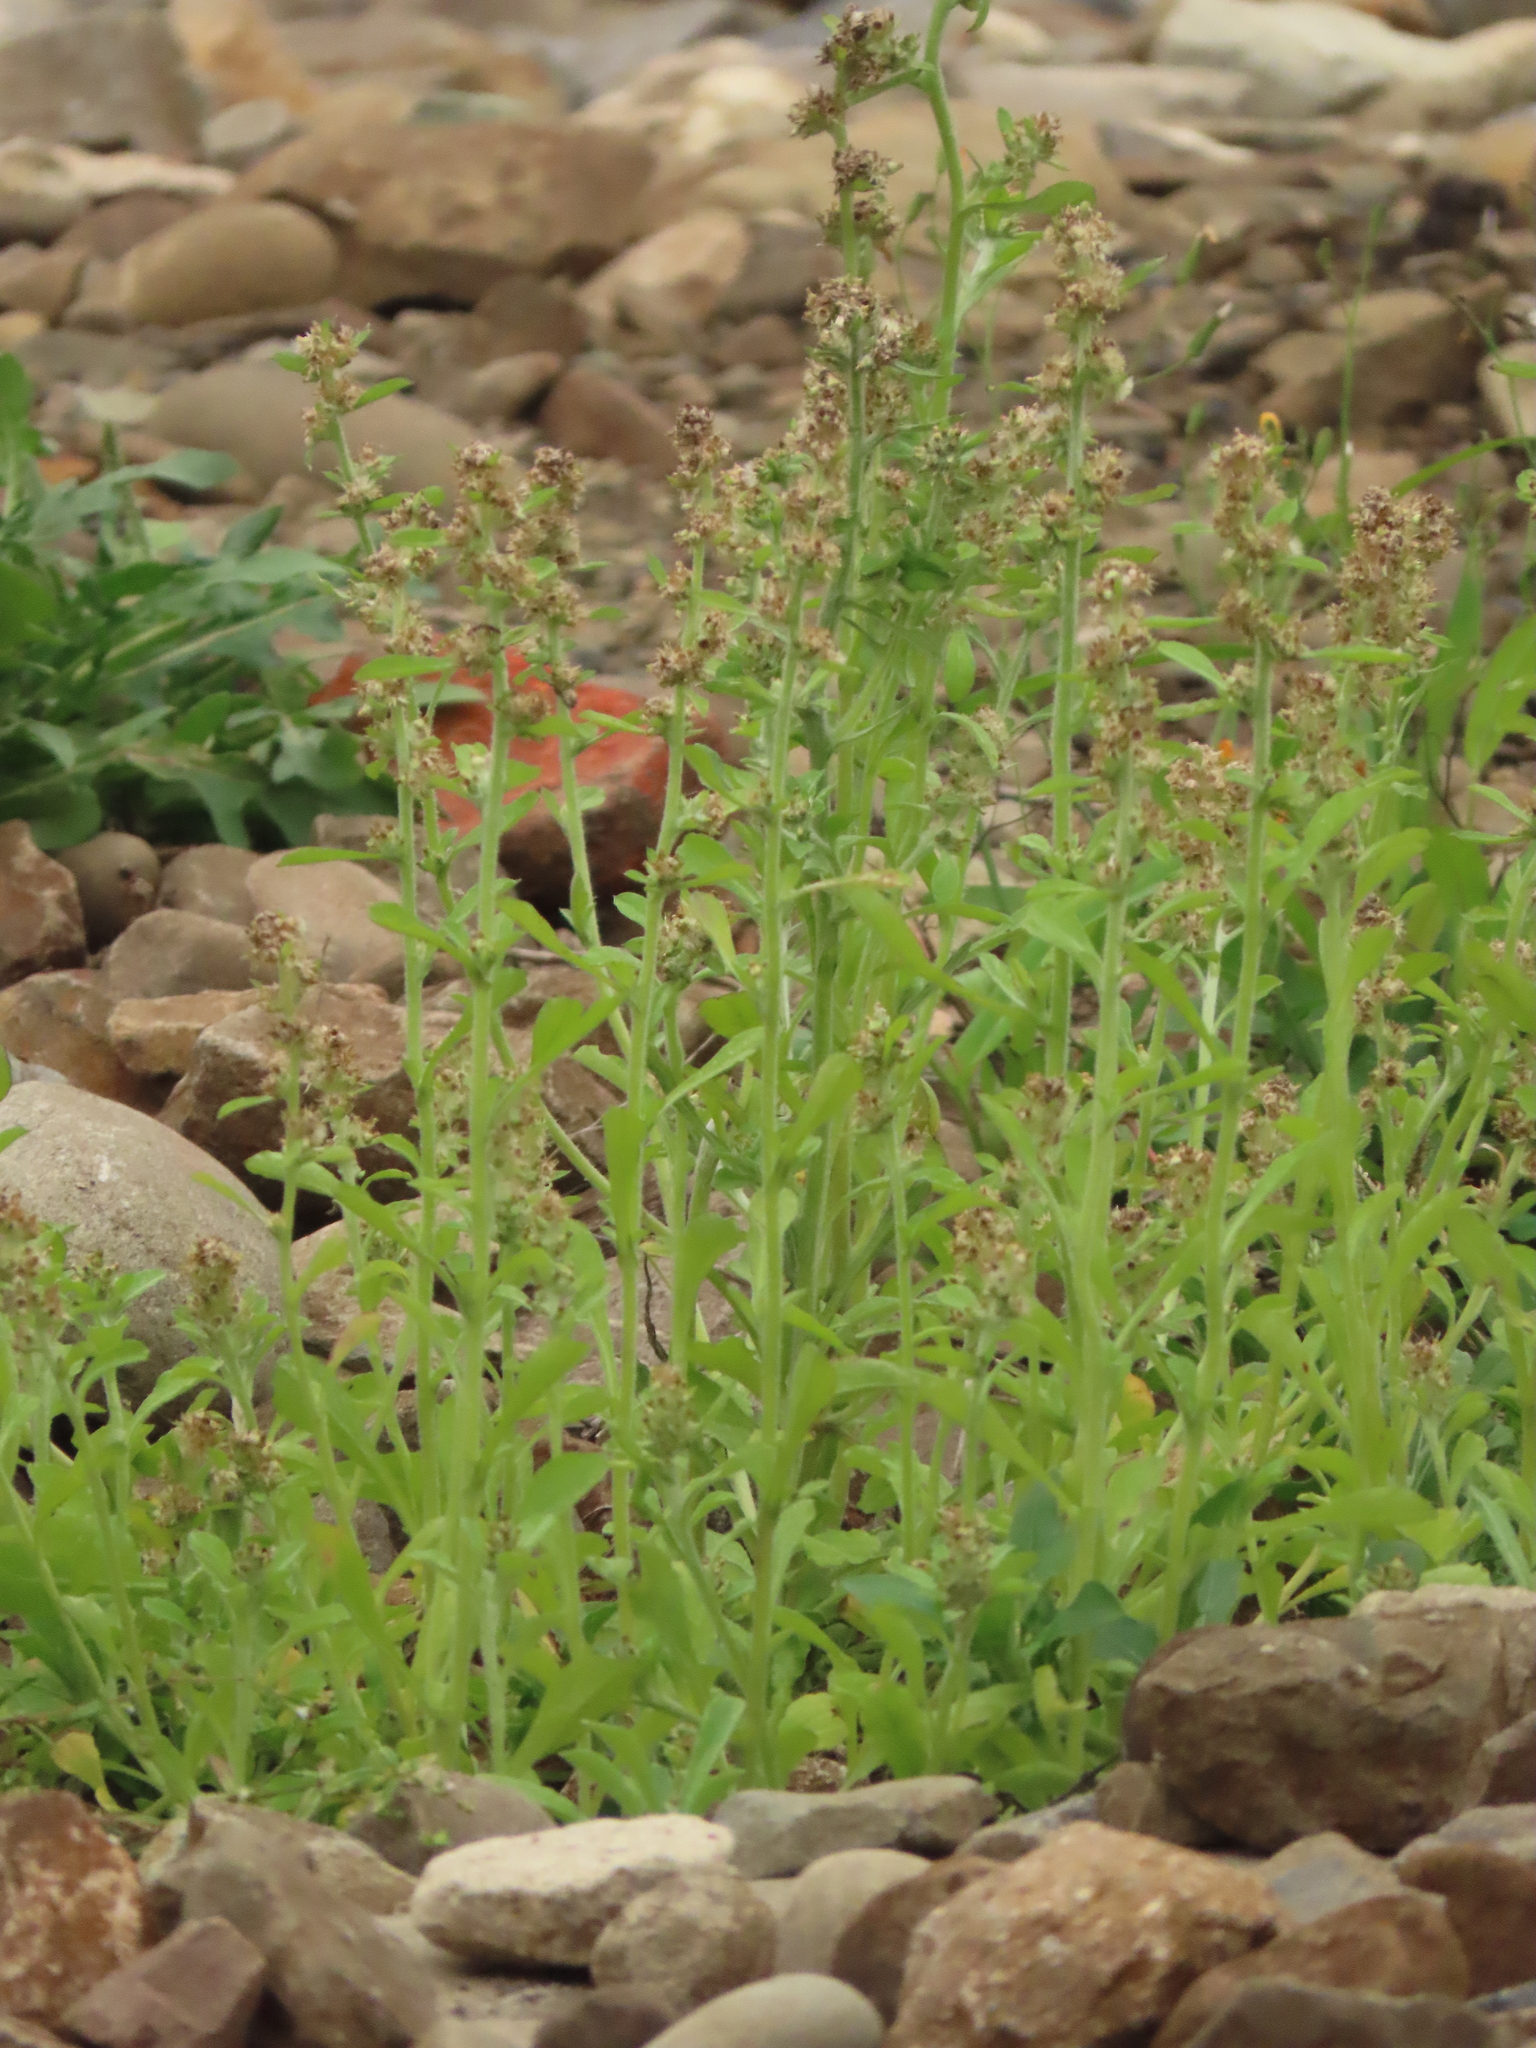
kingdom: Plantae
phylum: Tracheophyta
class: Magnoliopsida
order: Asterales
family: Asteraceae
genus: Gamochaeta
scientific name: Gamochaeta pensylvanica
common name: Pennsylvania everlasting
